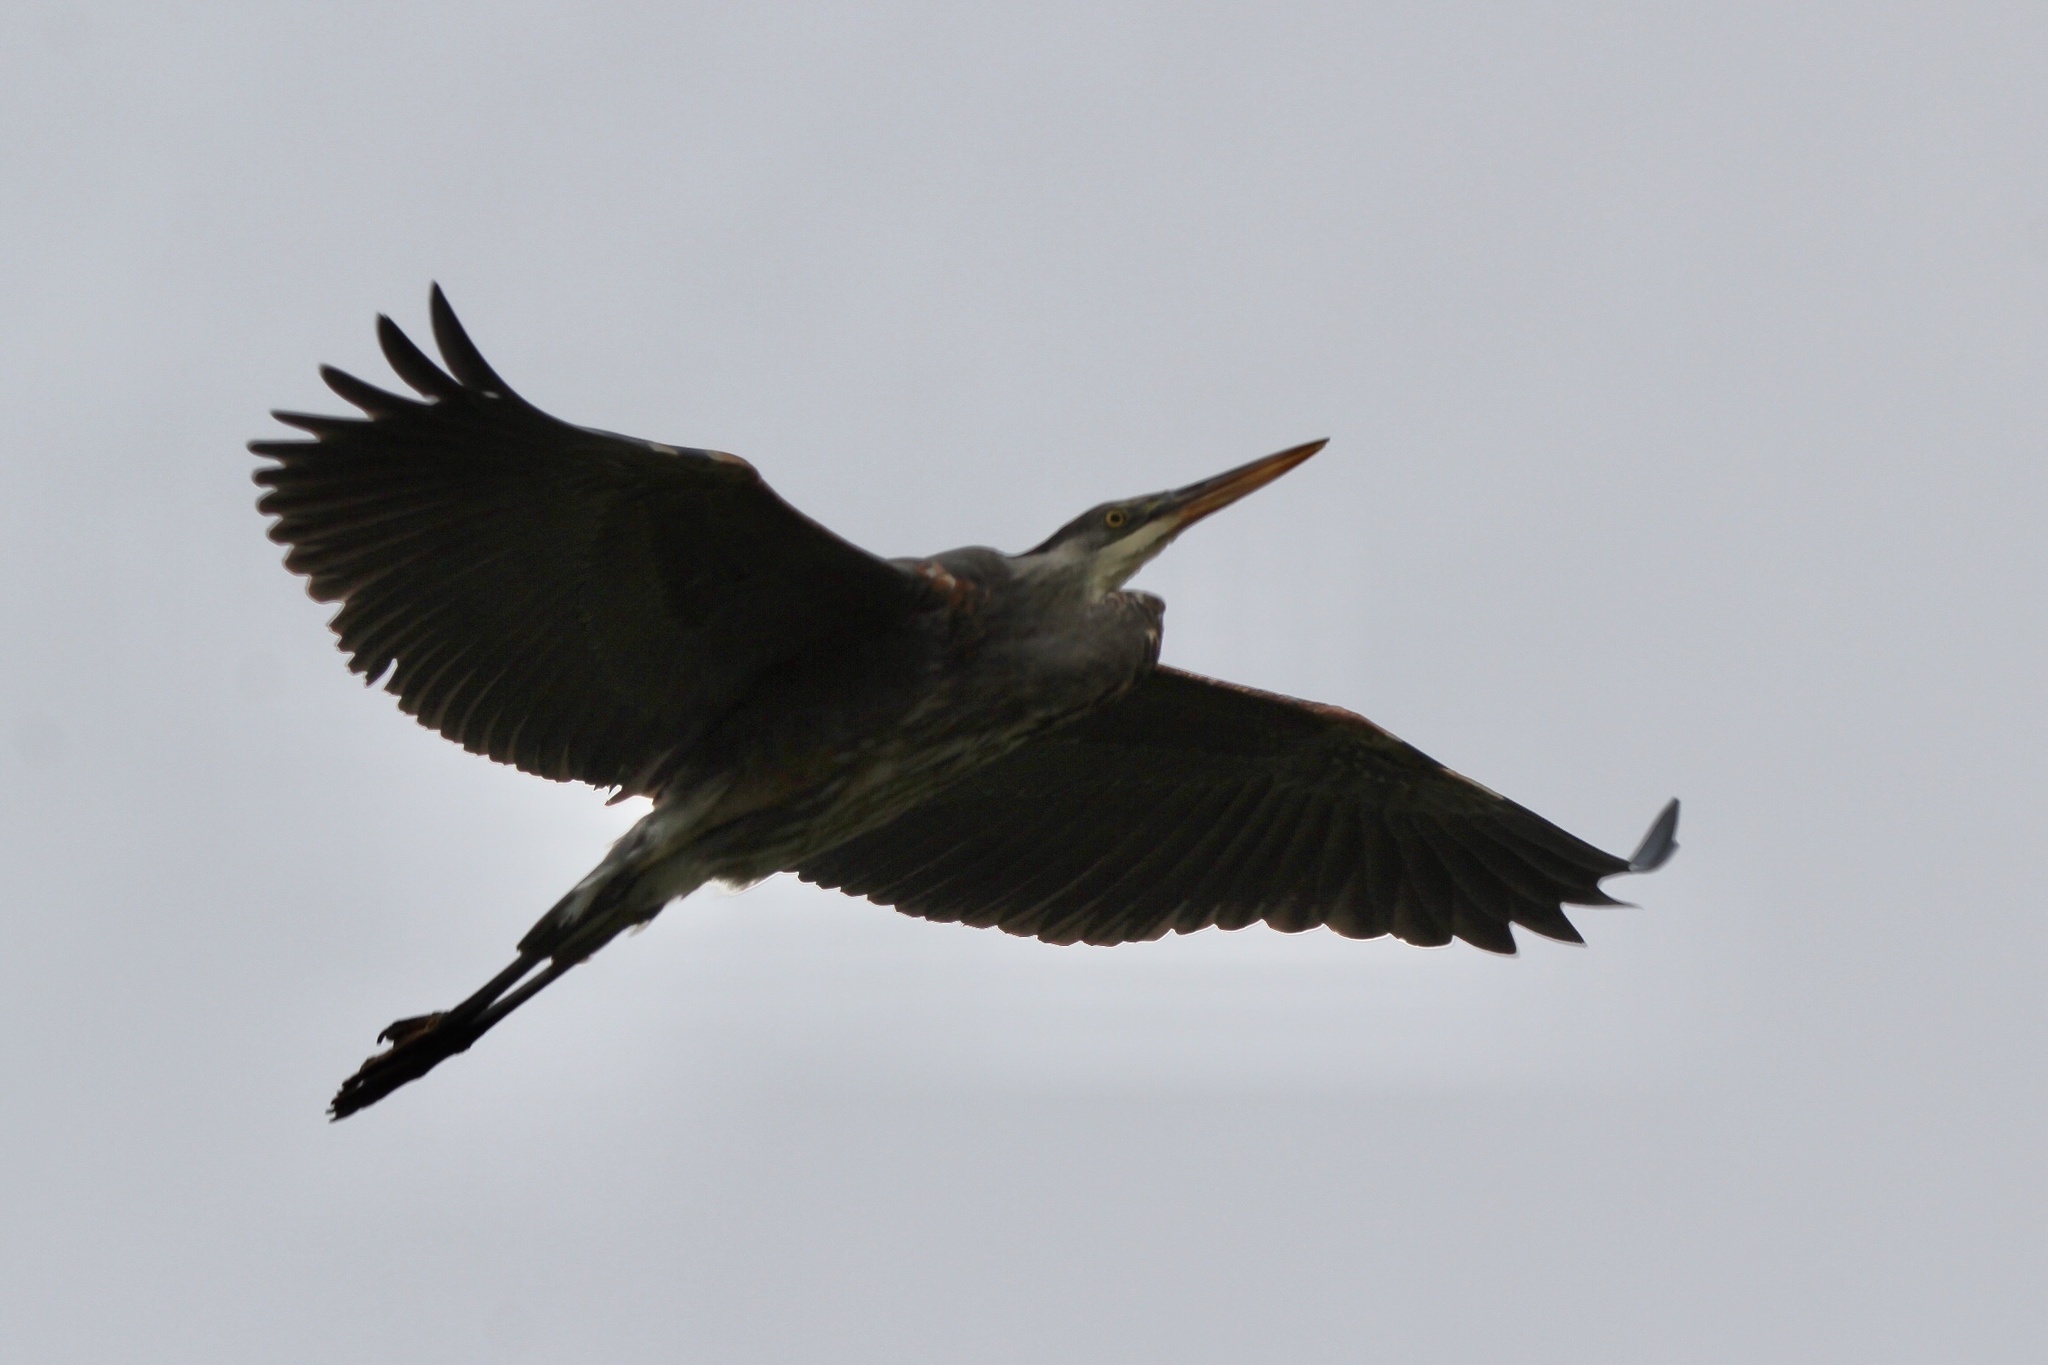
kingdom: Animalia
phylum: Chordata
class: Aves
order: Pelecaniformes
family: Ardeidae
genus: Ardea
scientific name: Ardea herodias
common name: Great blue heron
